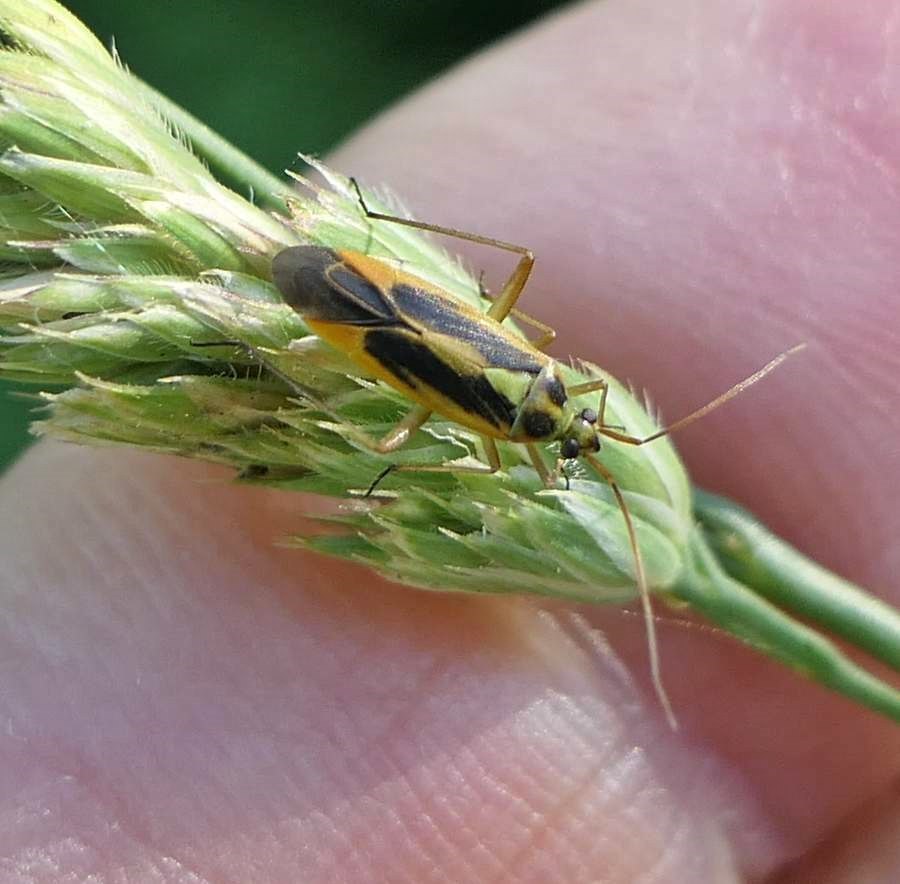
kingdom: Animalia
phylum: Arthropoda
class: Insecta
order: Hemiptera
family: Miridae
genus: Stenotus
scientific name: Stenotus binotatus
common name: Plant bug
